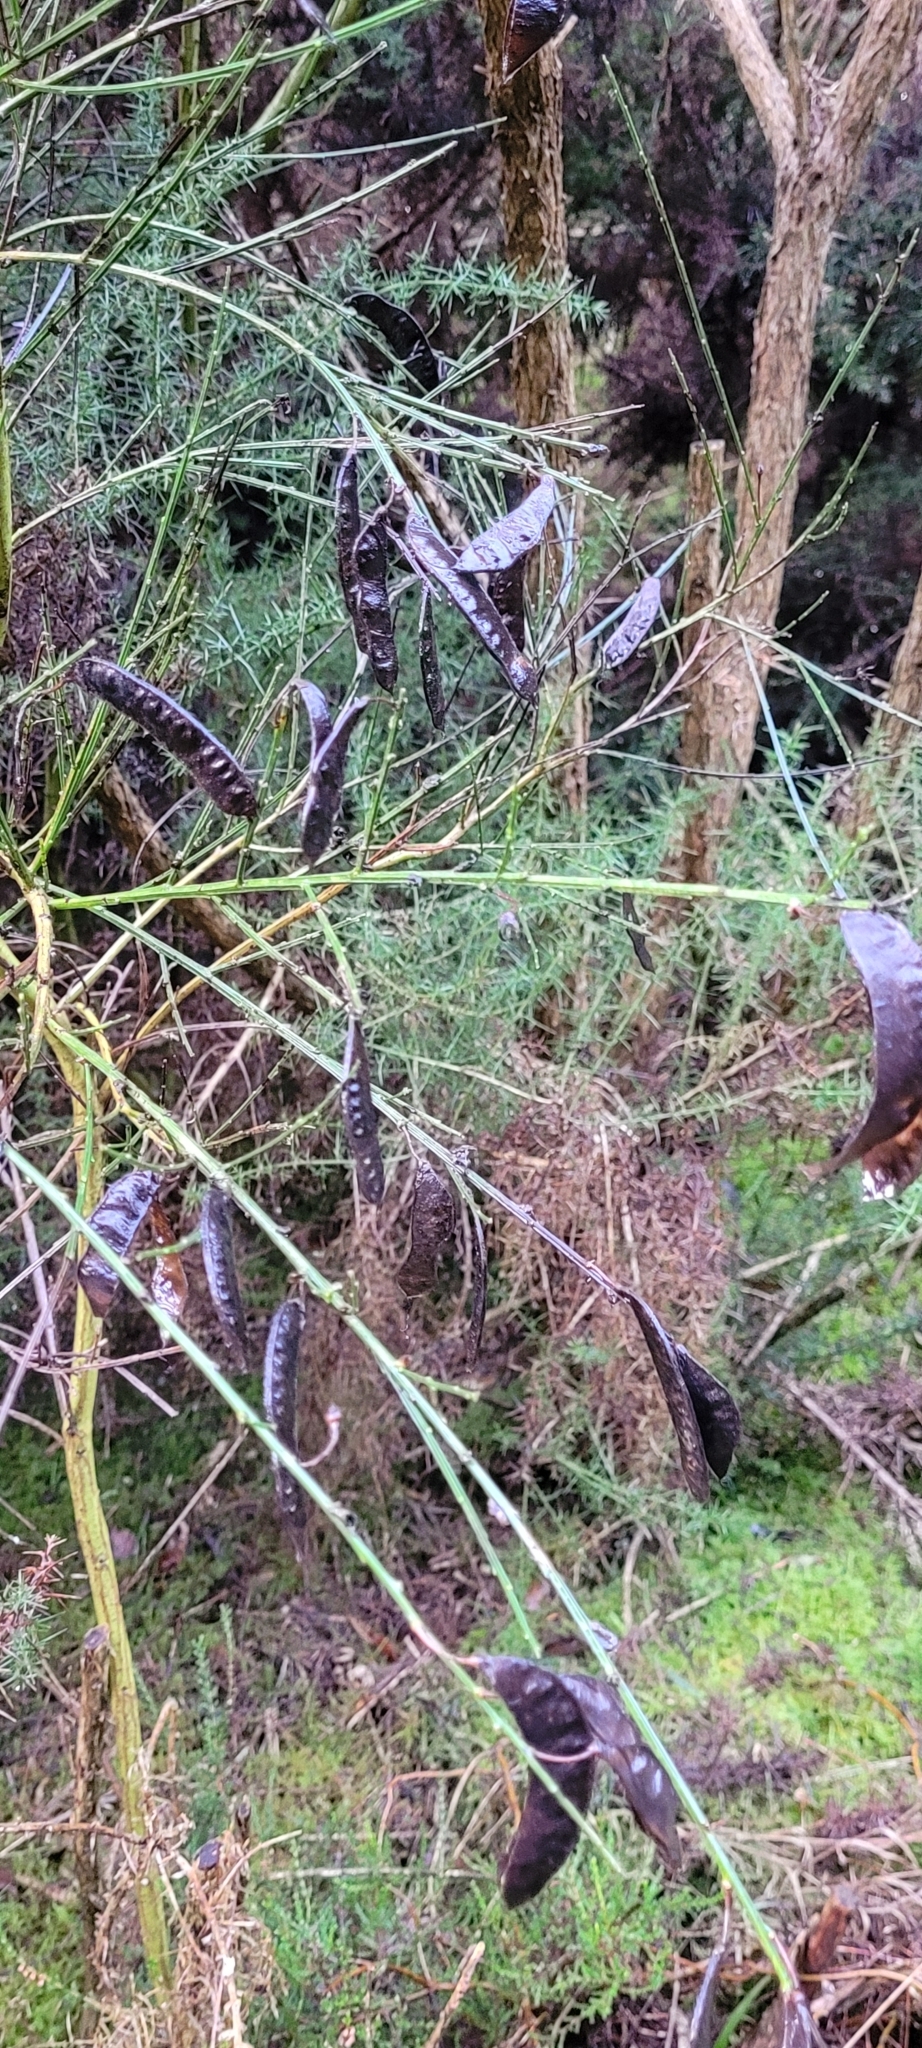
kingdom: Plantae
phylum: Tracheophyta
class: Magnoliopsida
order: Fabales
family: Fabaceae
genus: Cytisus
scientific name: Cytisus scoparius
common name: Scotch broom
